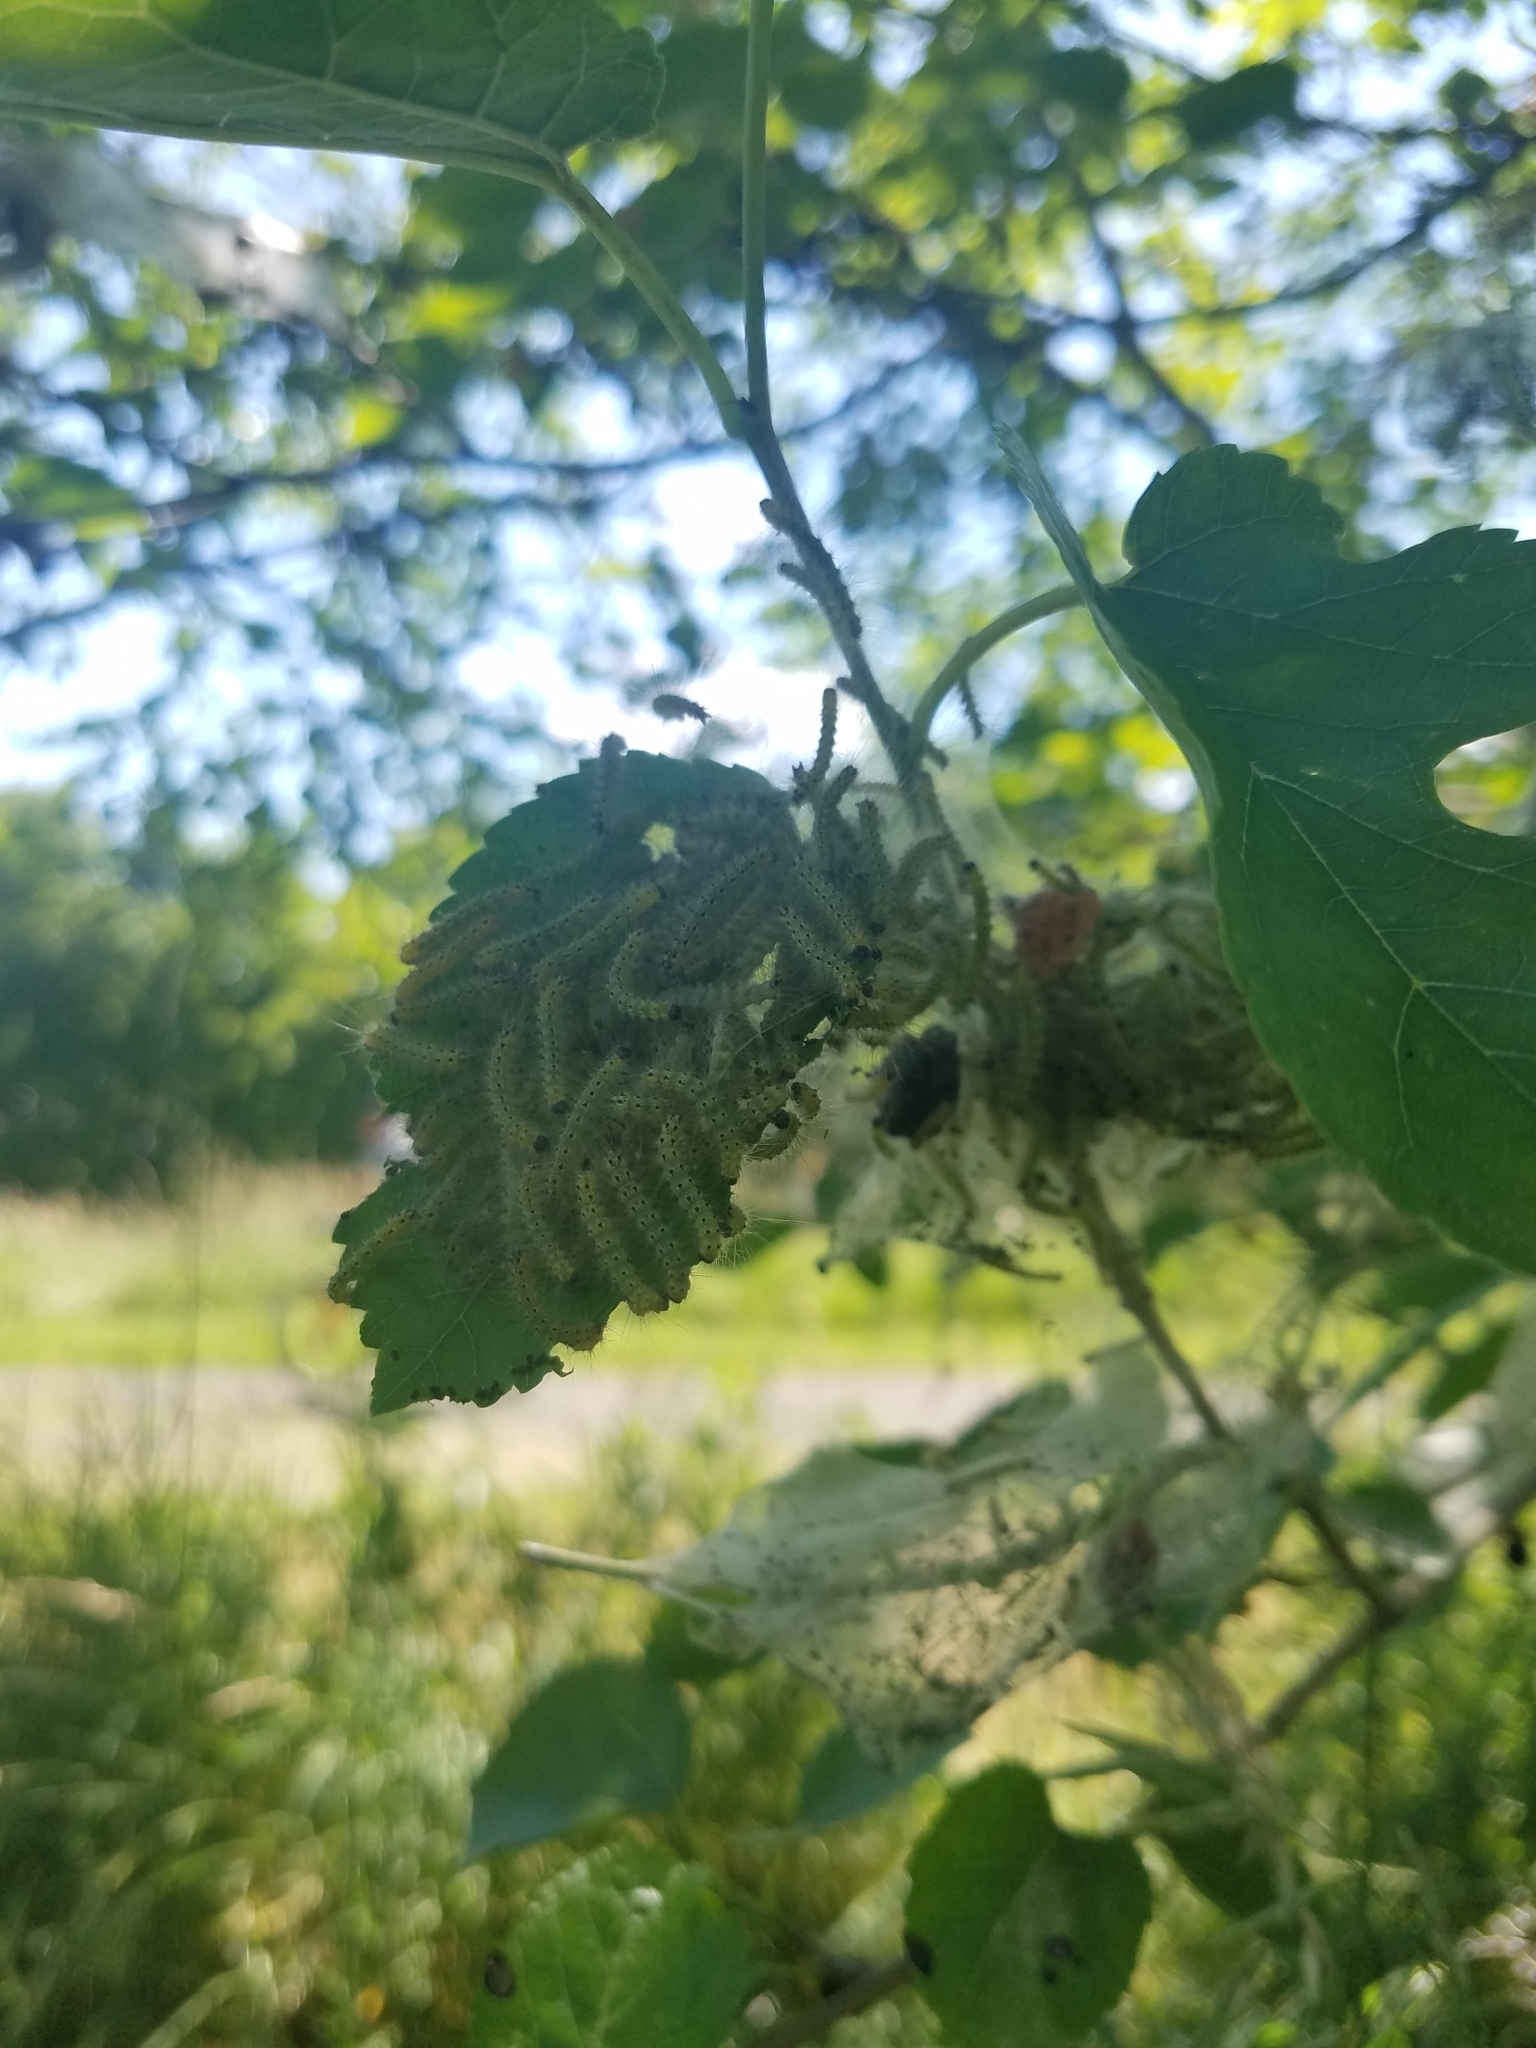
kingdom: Animalia
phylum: Arthropoda
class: Insecta
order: Lepidoptera
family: Erebidae
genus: Hyphantria
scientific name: Hyphantria cunea
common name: American white moth
